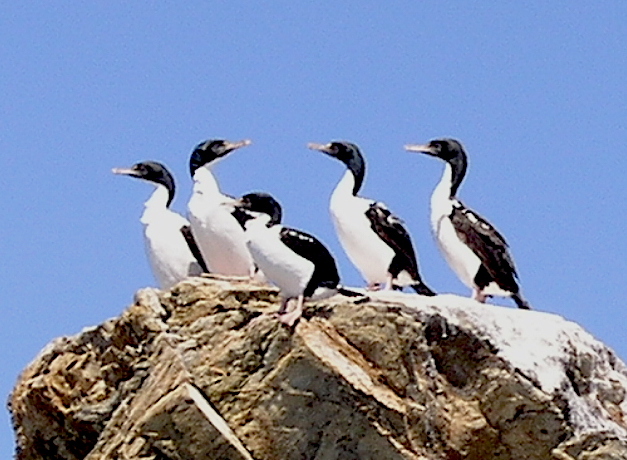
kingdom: Animalia
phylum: Chordata
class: Aves
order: Suliformes
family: Phalacrocoracidae
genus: Leucocarbo
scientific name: Leucocarbo carunculatus
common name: Rough-faced shag
